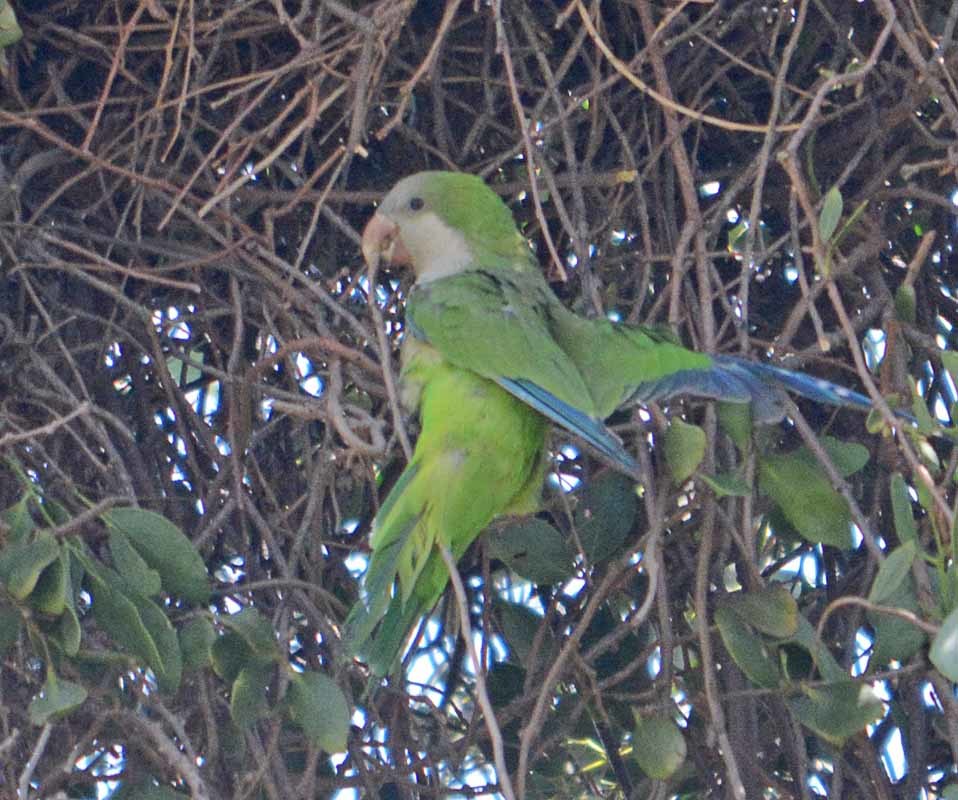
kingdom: Animalia
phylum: Chordata
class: Aves
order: Psittaciformes
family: Psittacidae
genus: Myiopsitta
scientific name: Myiopsitta monachus
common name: Monk parakeet
